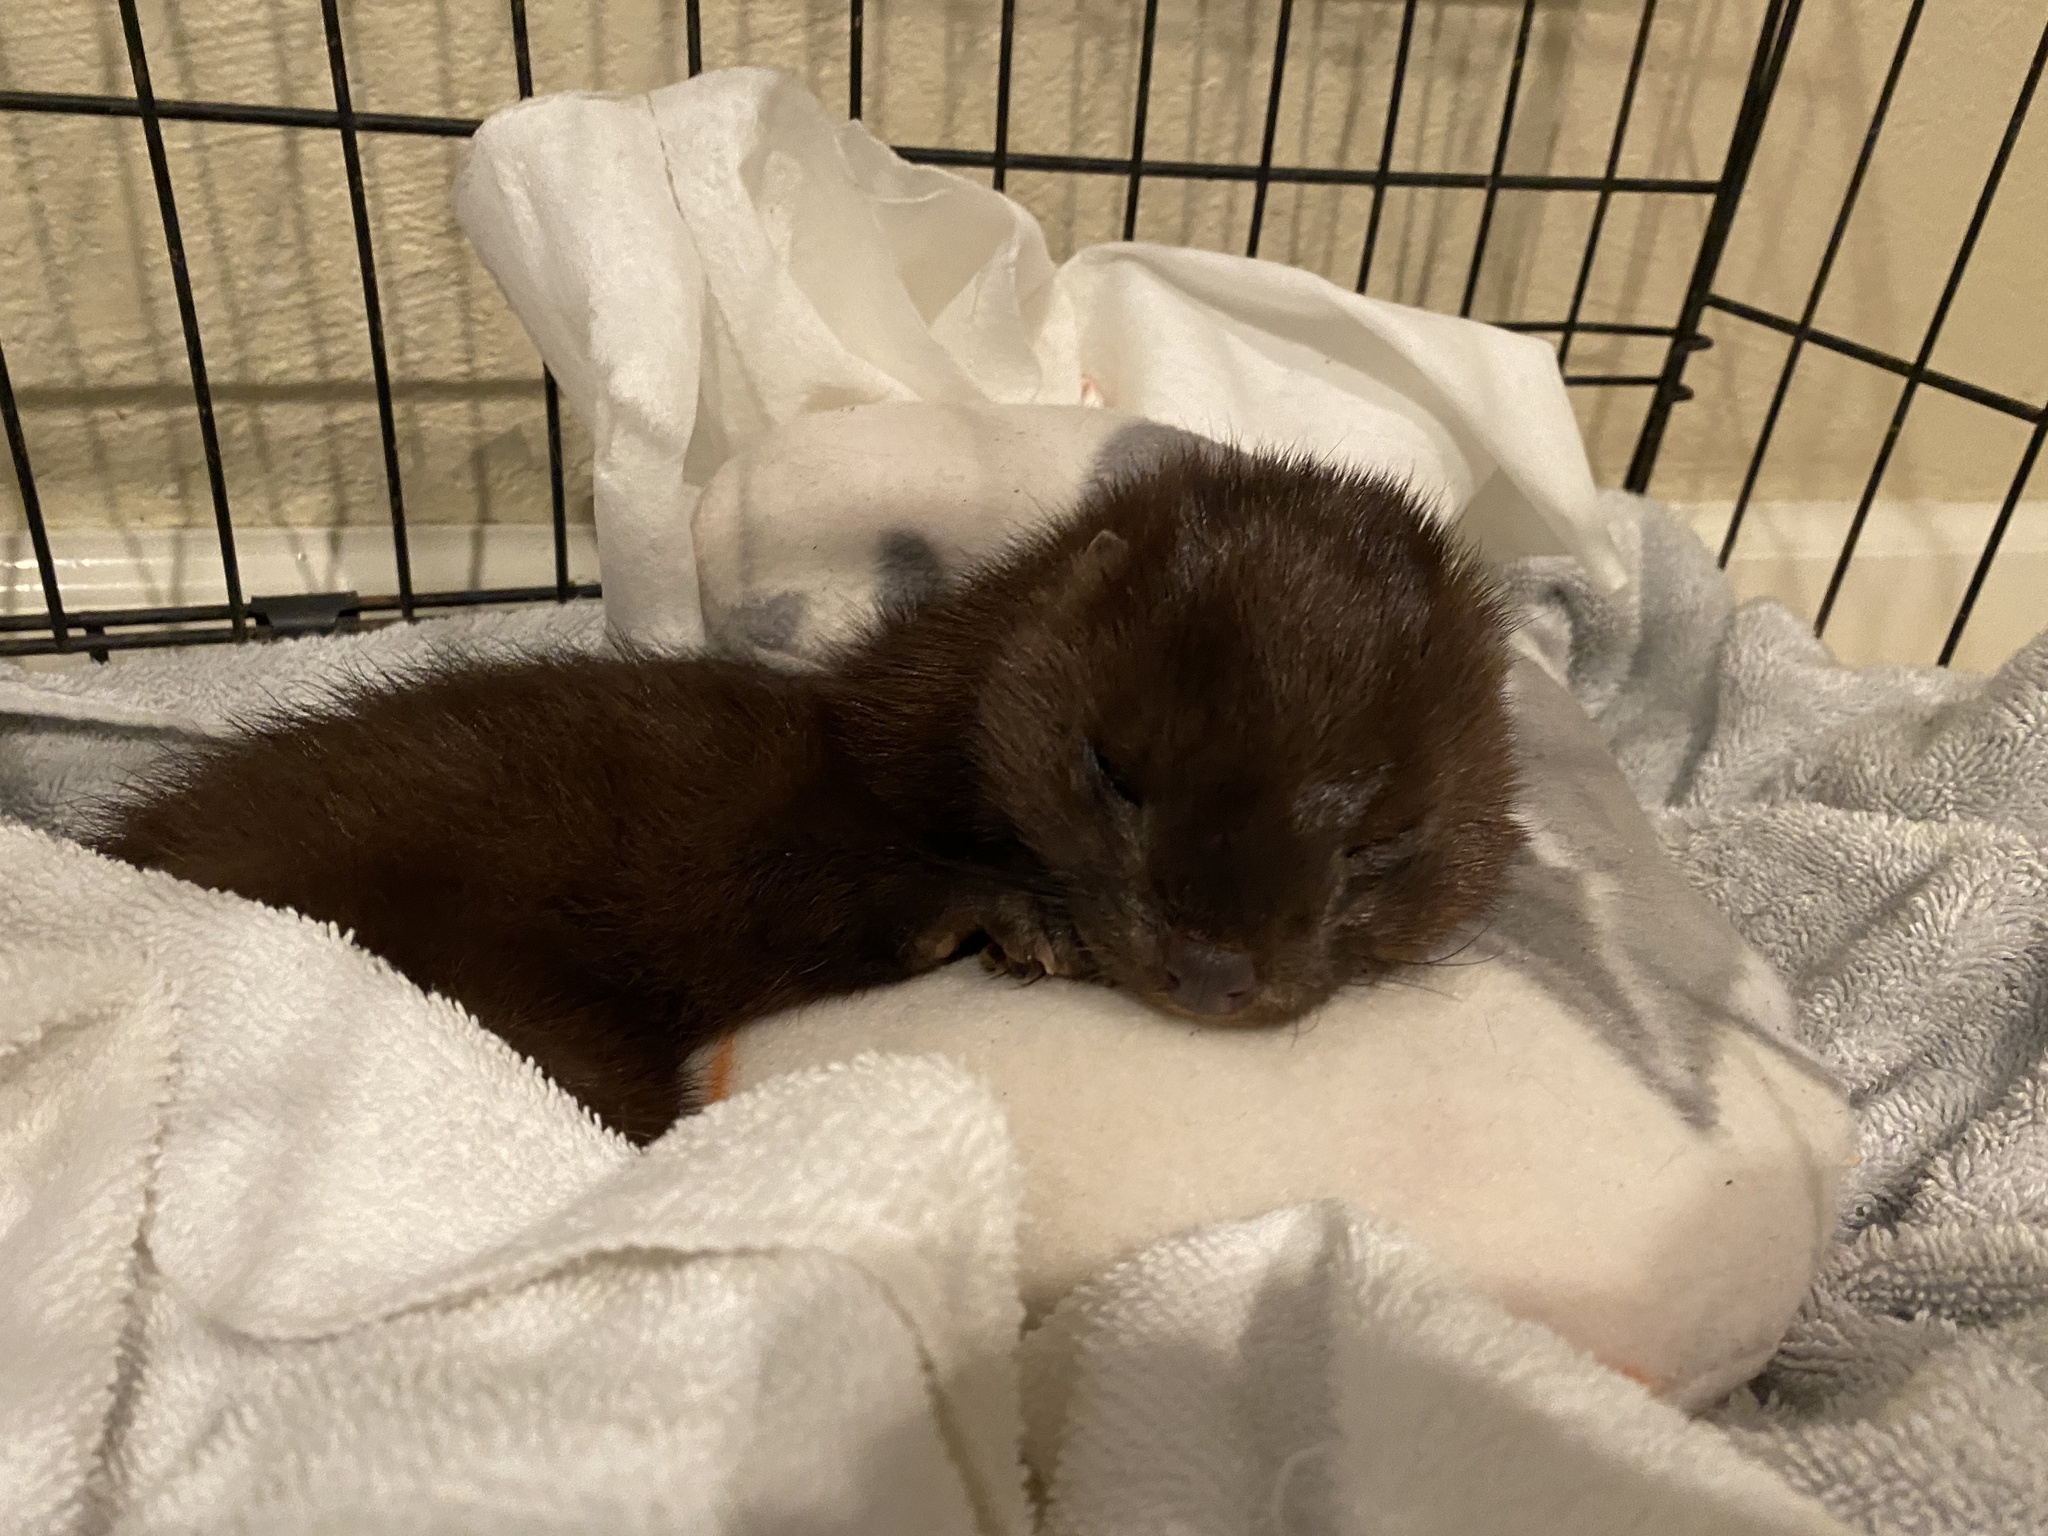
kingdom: Animalia
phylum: Chordata
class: Mammalia
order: Carnivora
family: Mustelidae
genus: Mustela
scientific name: Mustela
